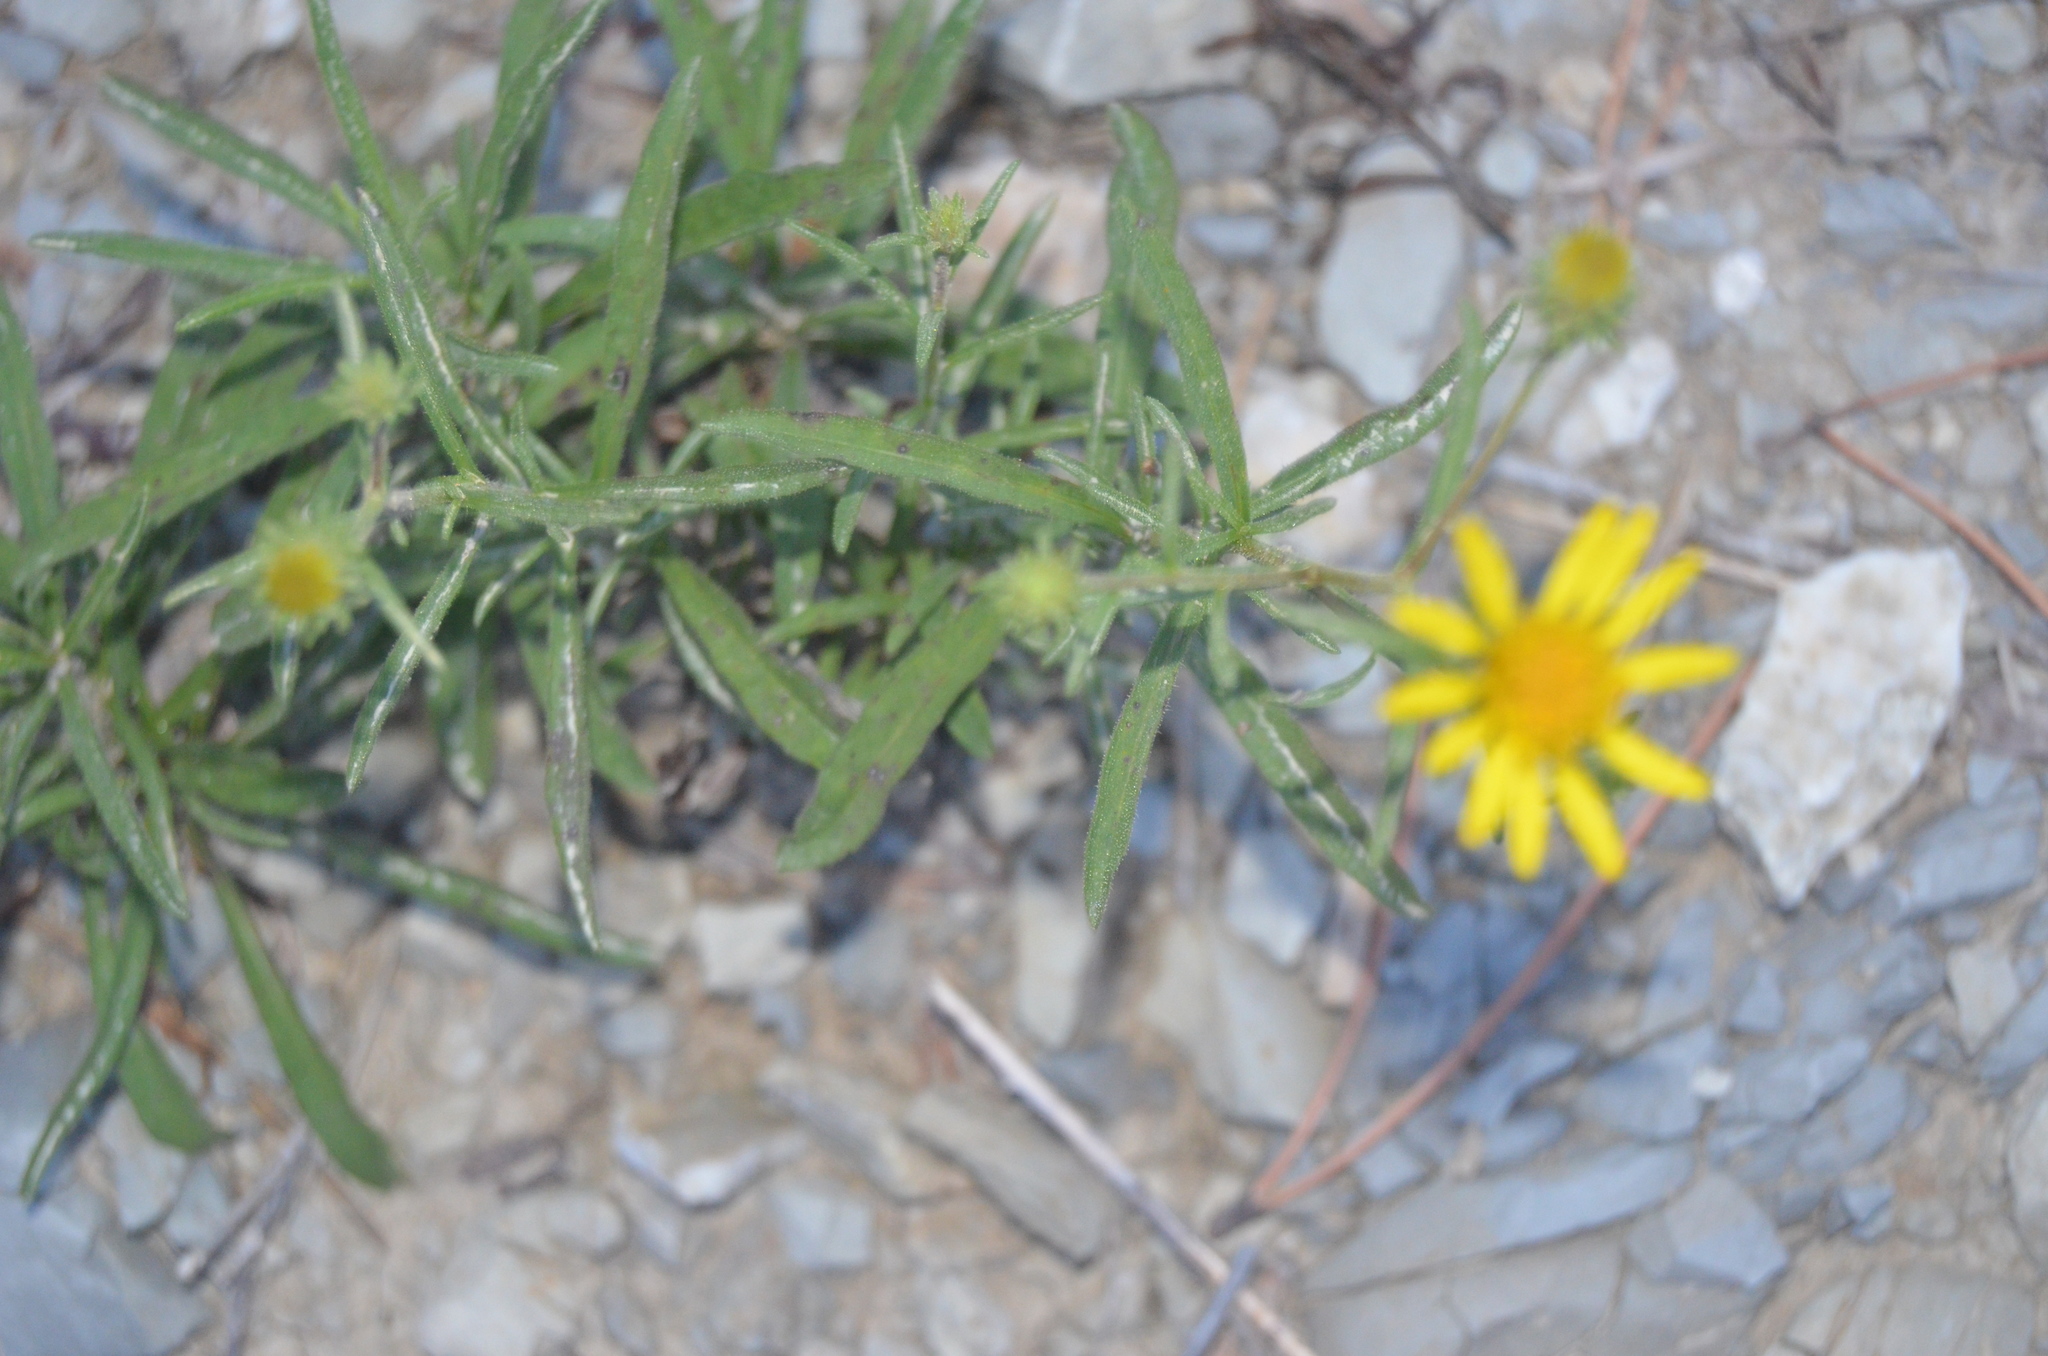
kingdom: Plantae
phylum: Tracheophyta
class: Magnoliopsida
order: Asterales
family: Asteraceae
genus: Senecio
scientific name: Senecio inaequidens
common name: Narrow-leaved ragwort
